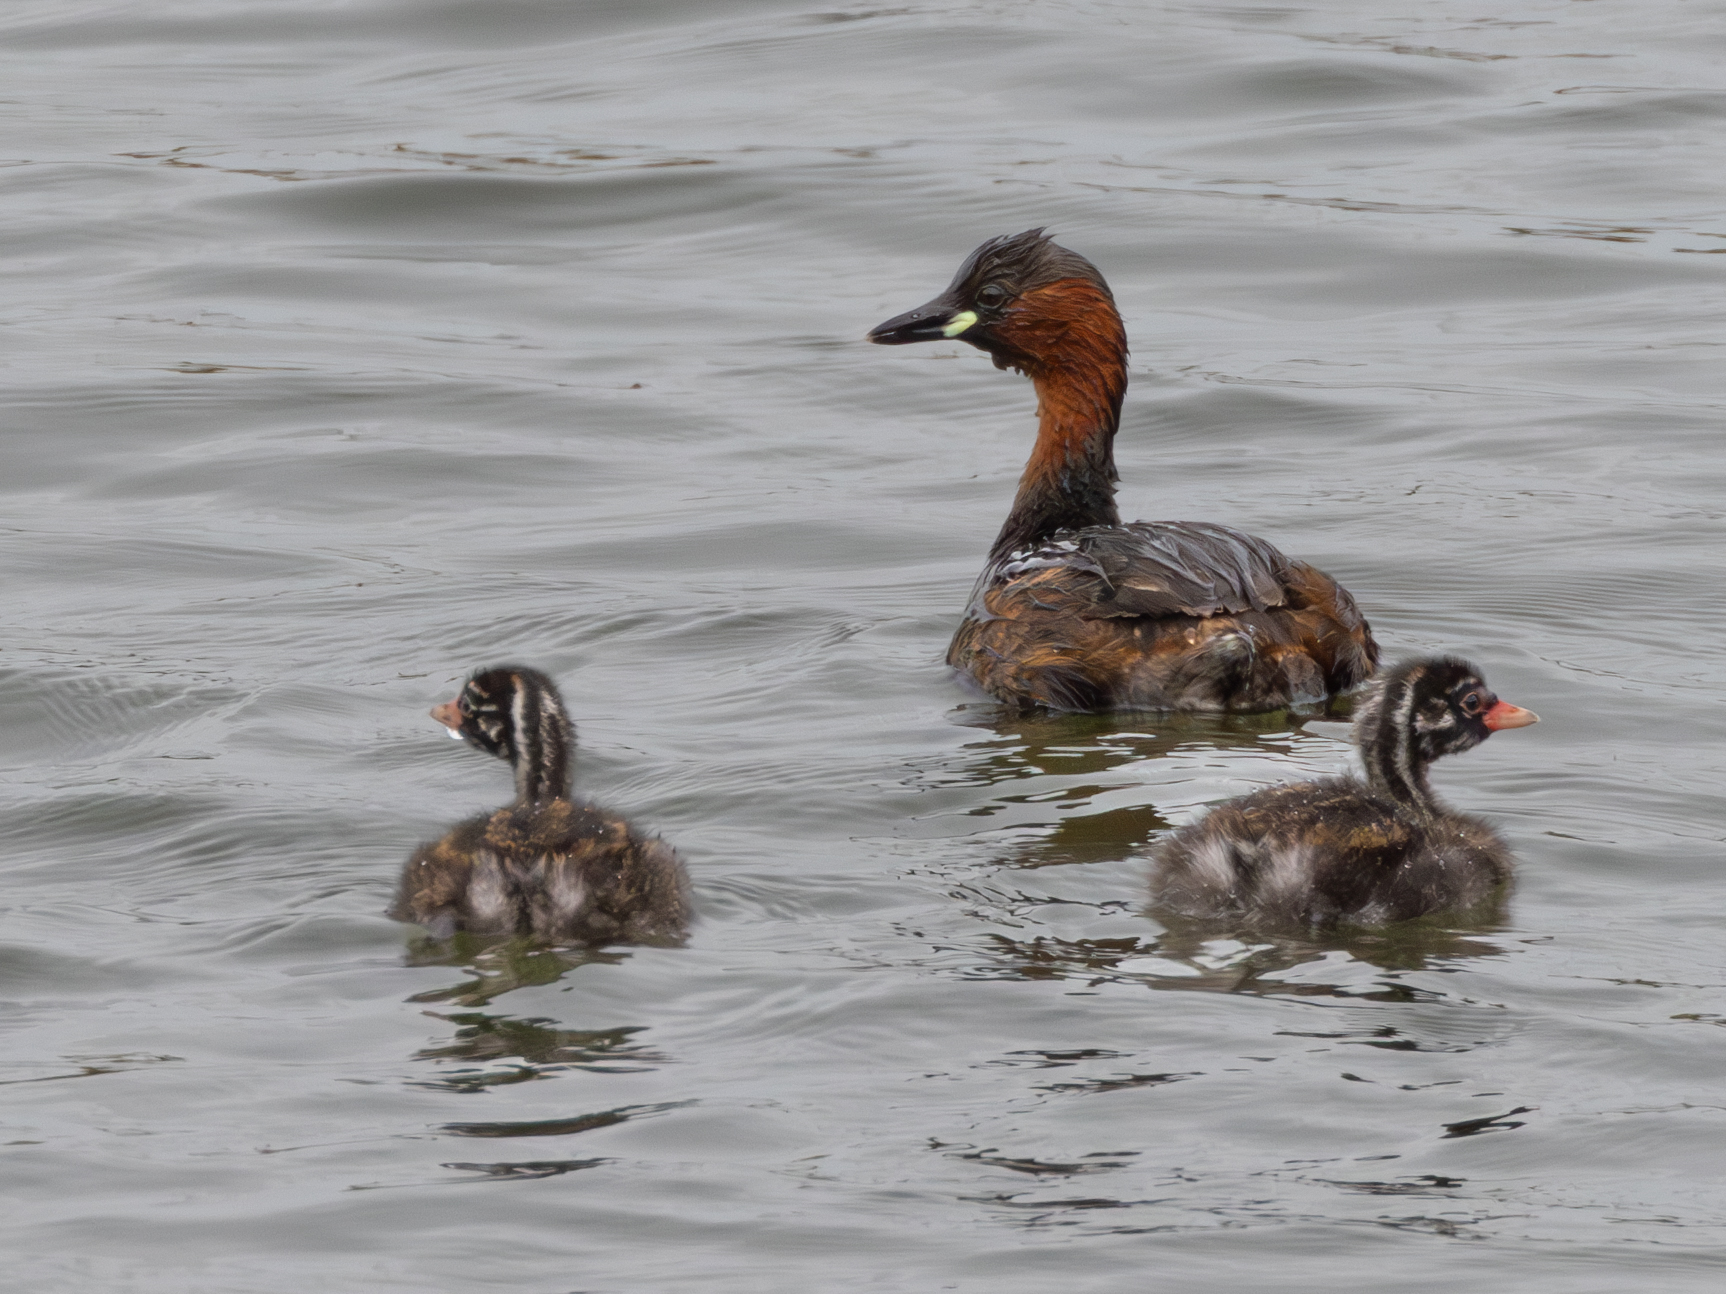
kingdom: Animalia
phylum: Chordata
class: Aves
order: Podicipediformes
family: Podicipedidae
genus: Tachybaptus
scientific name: Tachybaptus ruficollis
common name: Little grebe
